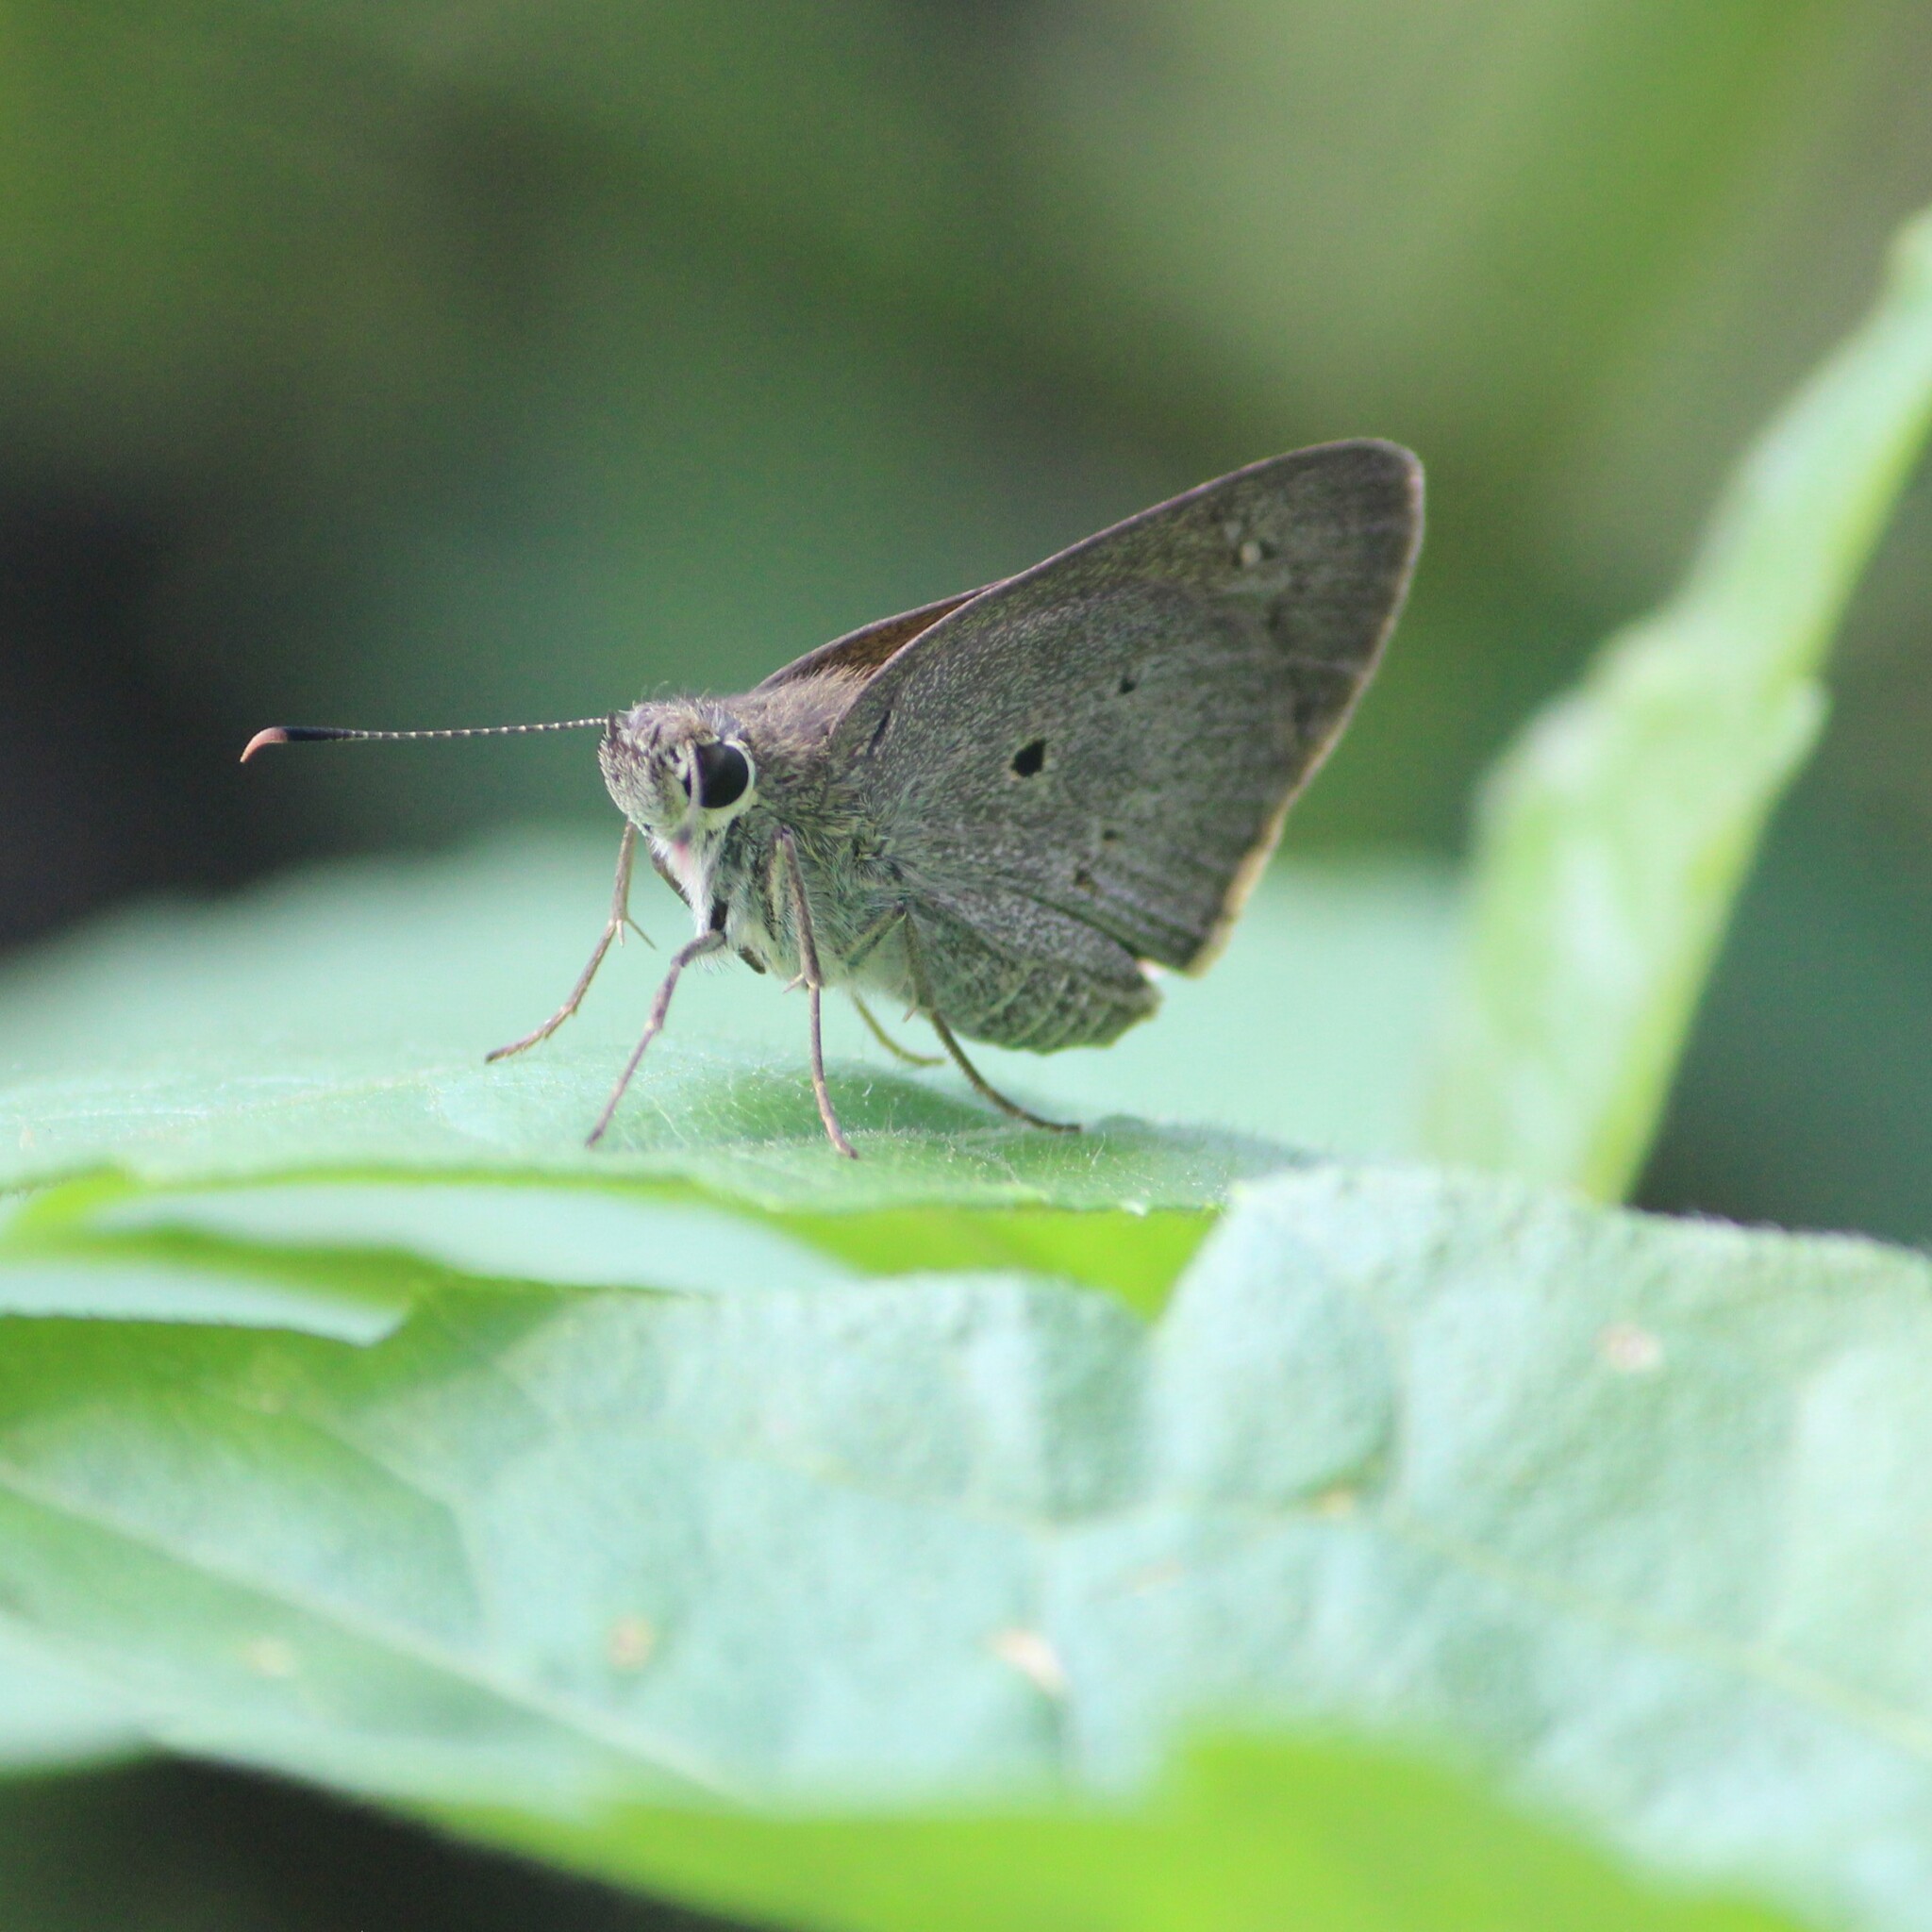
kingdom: Animalia
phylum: Arthropoda
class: Insecta
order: Lepidoptera
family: Hesperiidae
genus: Suastus
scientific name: Suastus gremius
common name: Indian palm bob
